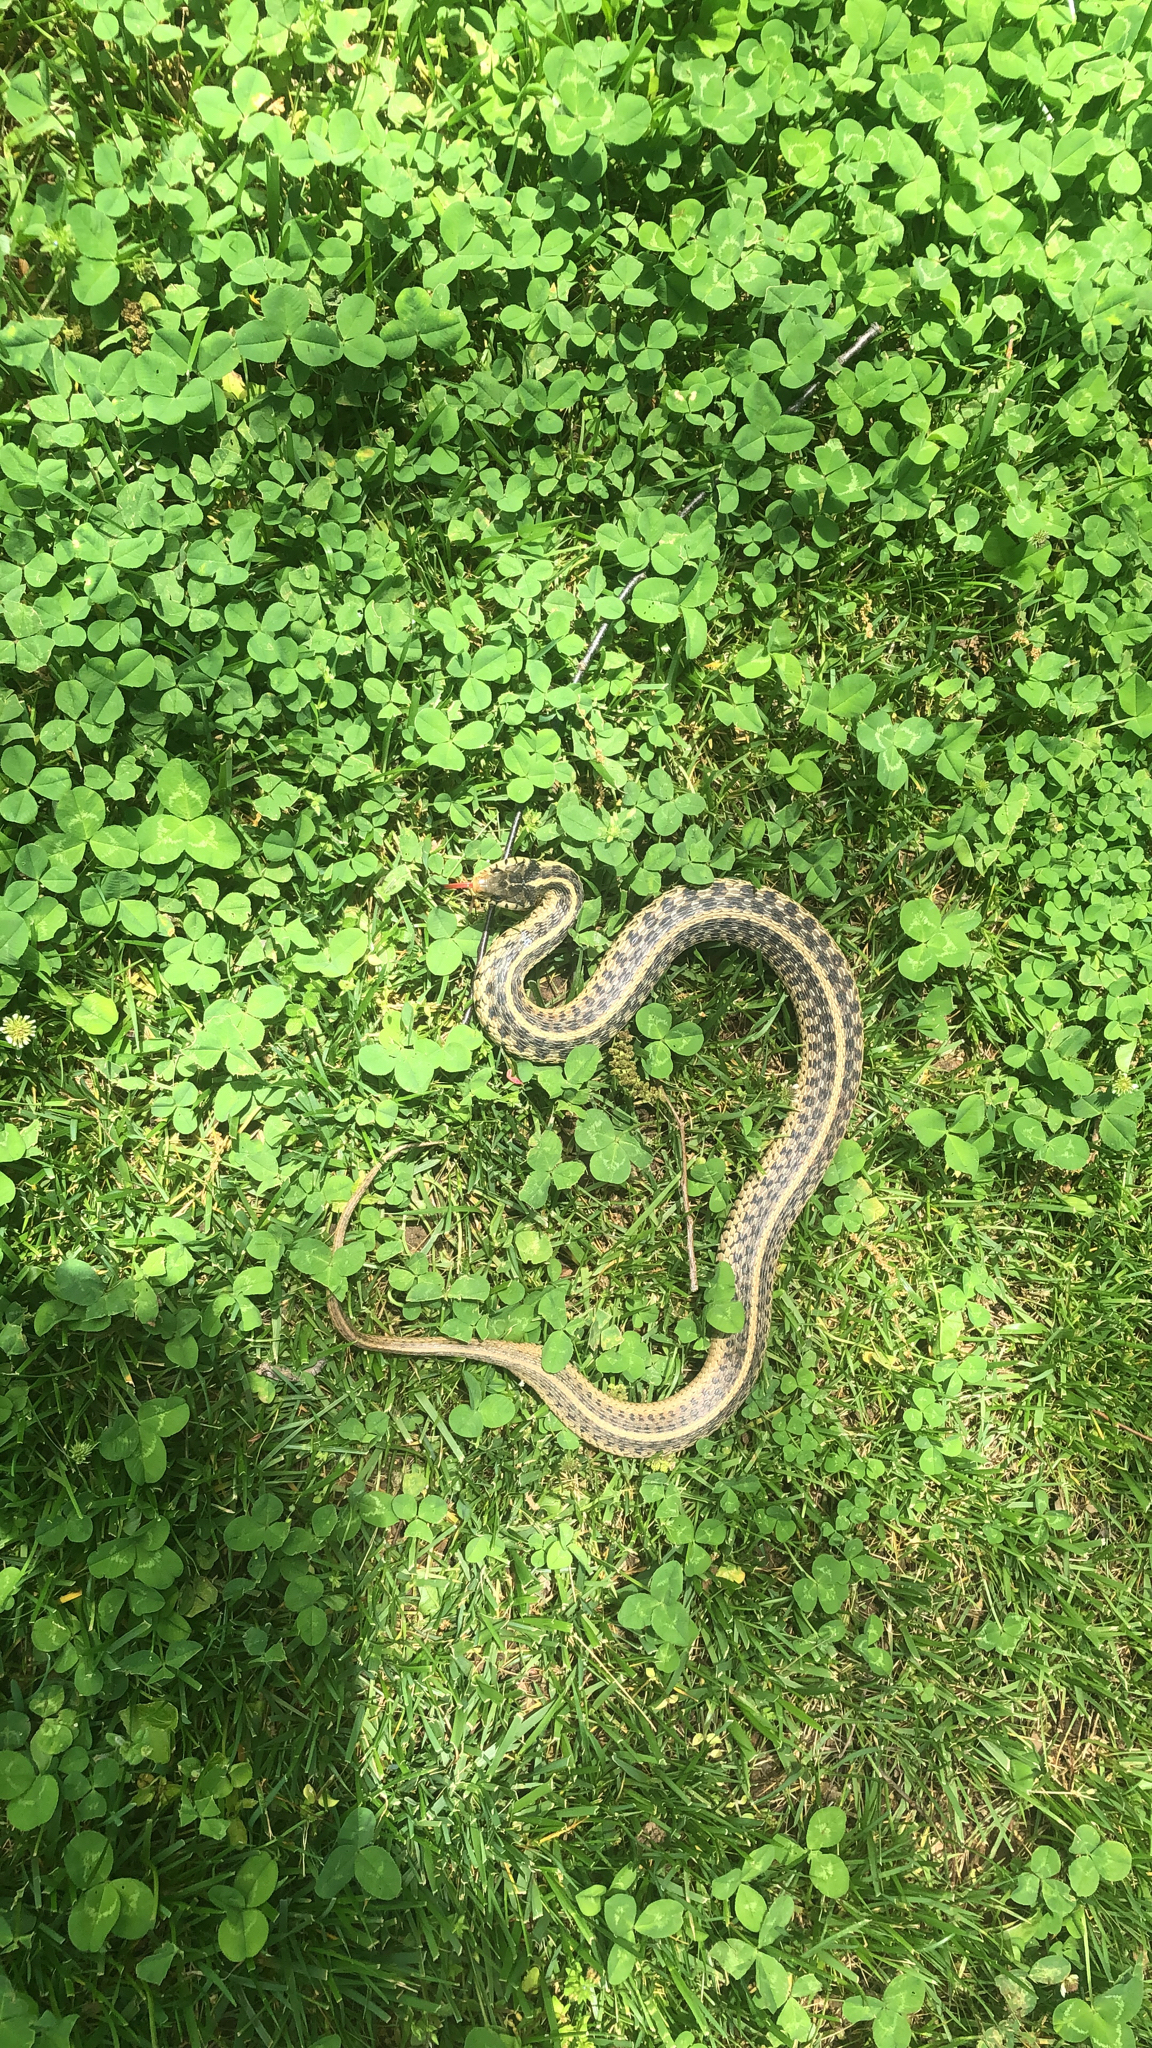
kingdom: Animalia
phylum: Chordata
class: Squamata
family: Colubridae
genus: Thamnophis
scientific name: Thamnophis sirtalis
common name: Common garter snake
